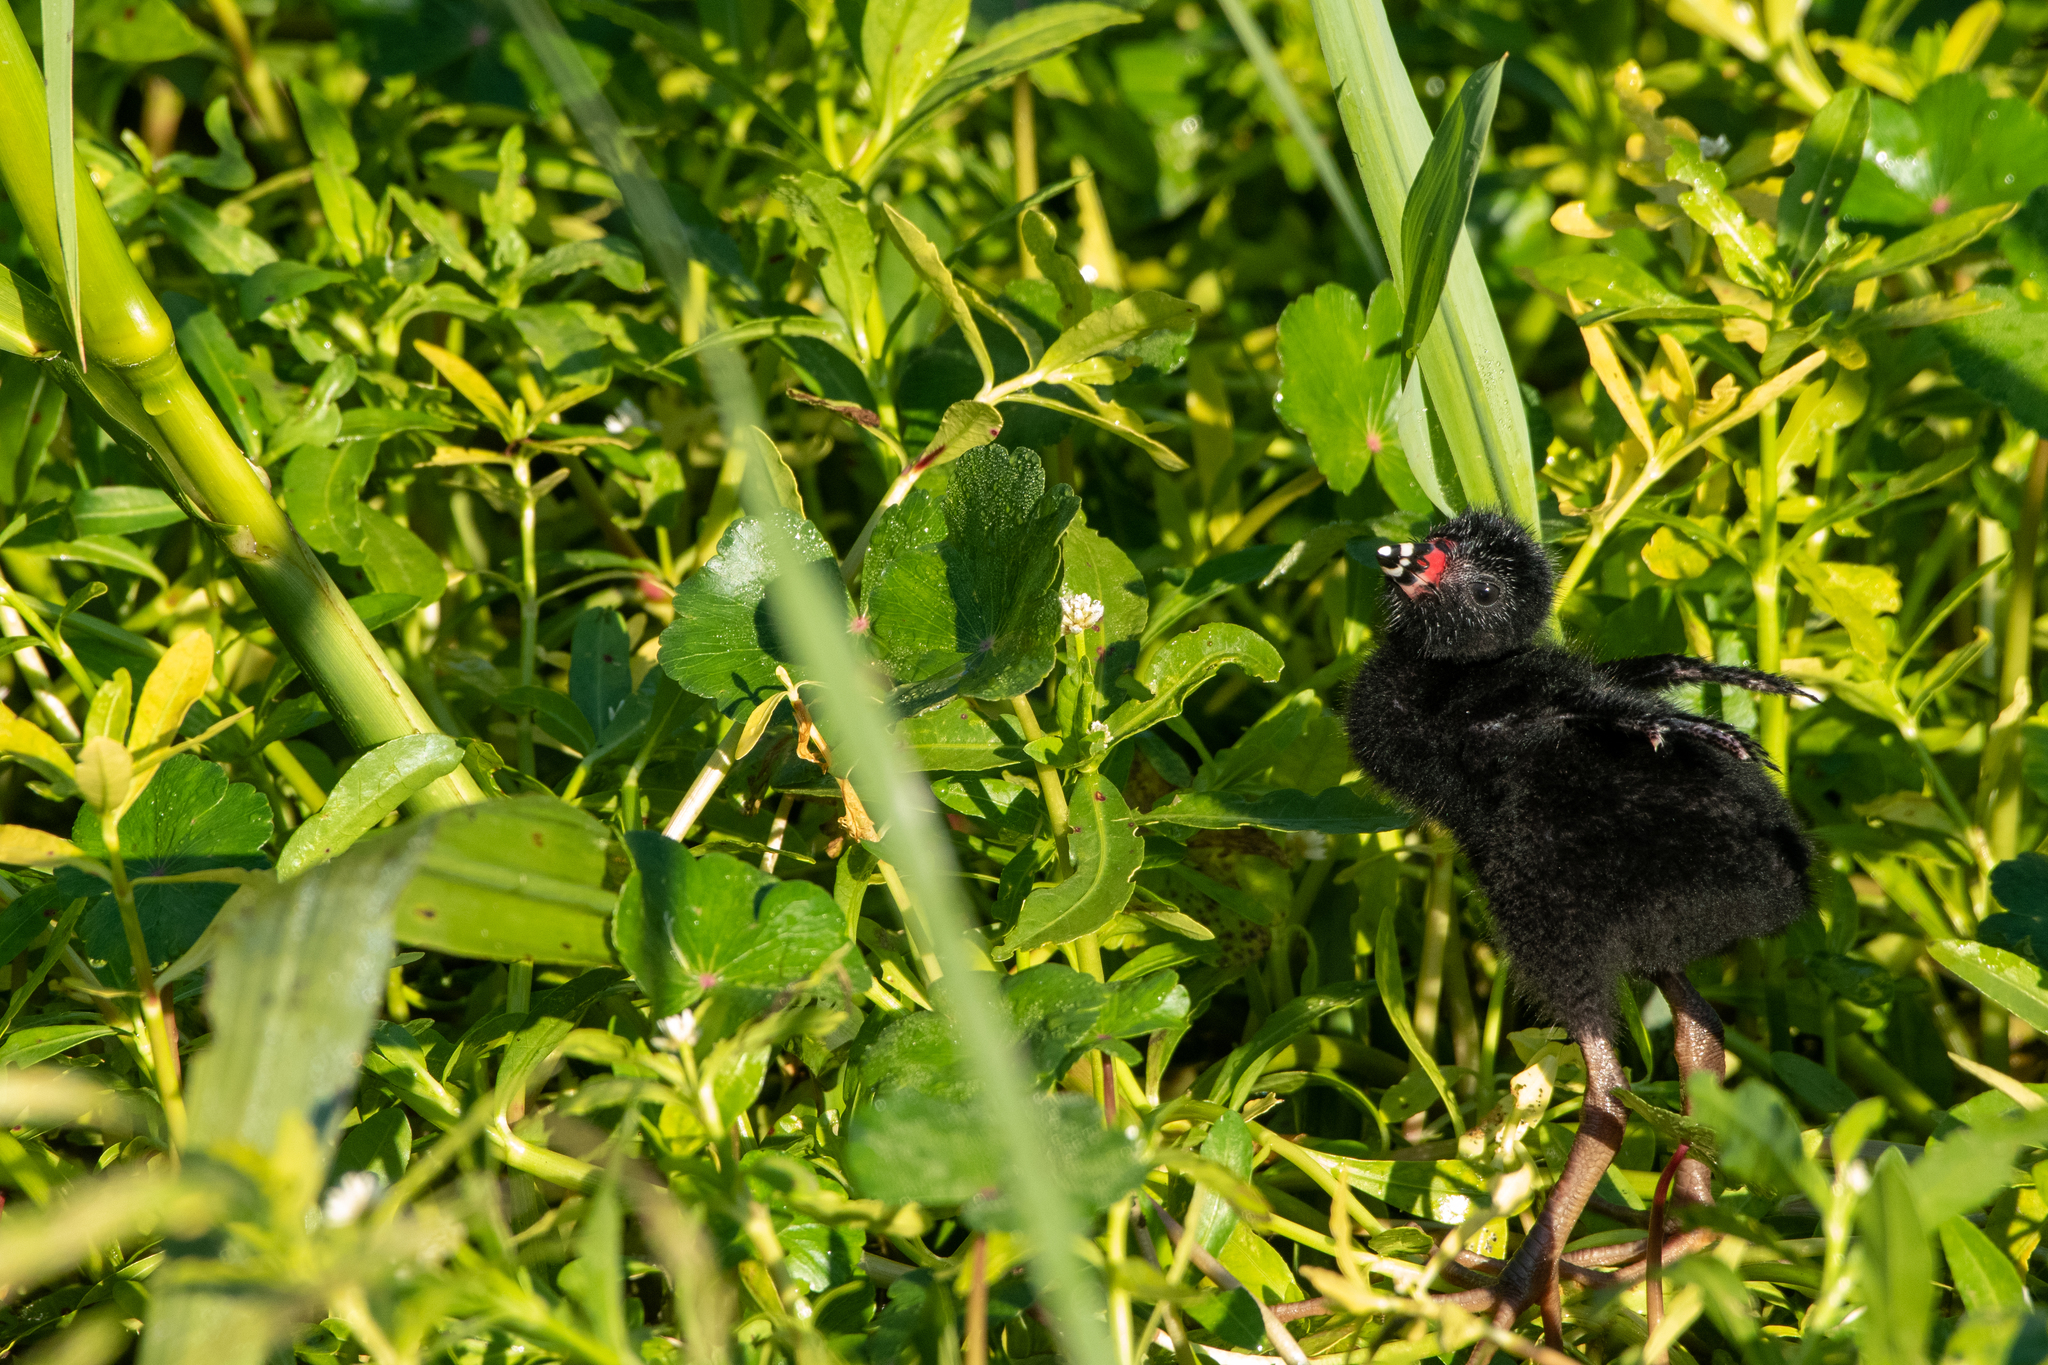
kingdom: Animalia
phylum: Chordata
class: Aves
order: Gruiformes
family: Rallidae
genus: Porphyrio
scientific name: Porphyrio martinica
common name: Purple gallinule
